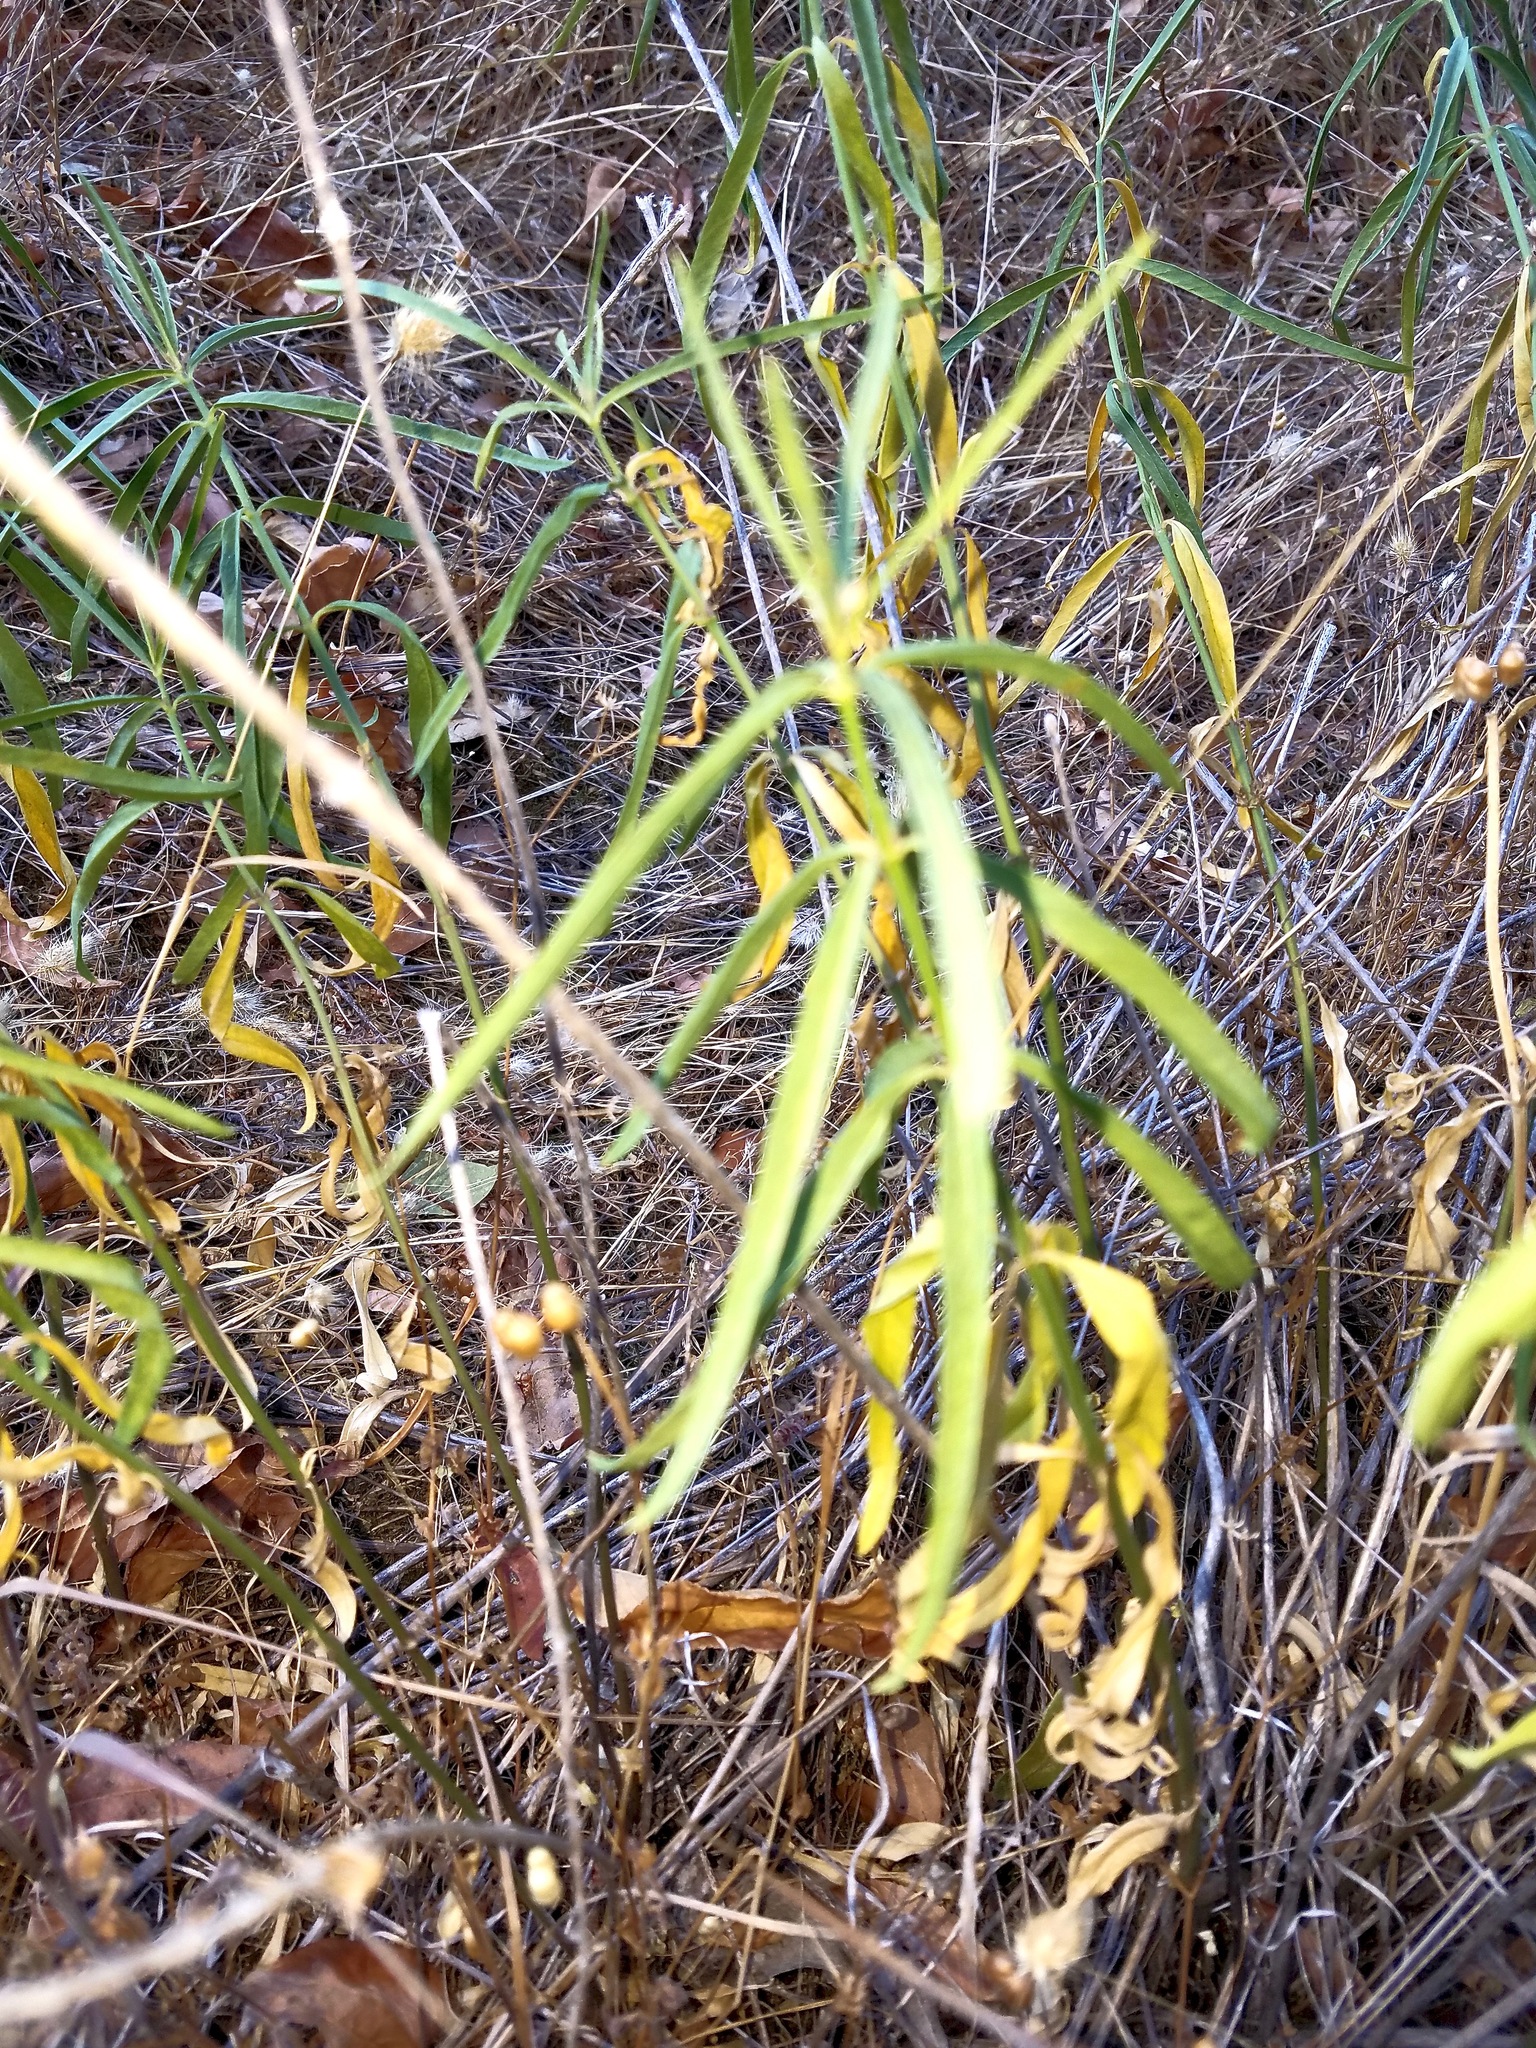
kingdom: Plantae
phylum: Tracheophyta
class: Magnoliopsida
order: Gentianales
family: Apocynaceae
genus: Asclepias
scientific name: Asclepias fascicularis
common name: Mexican milkweed
